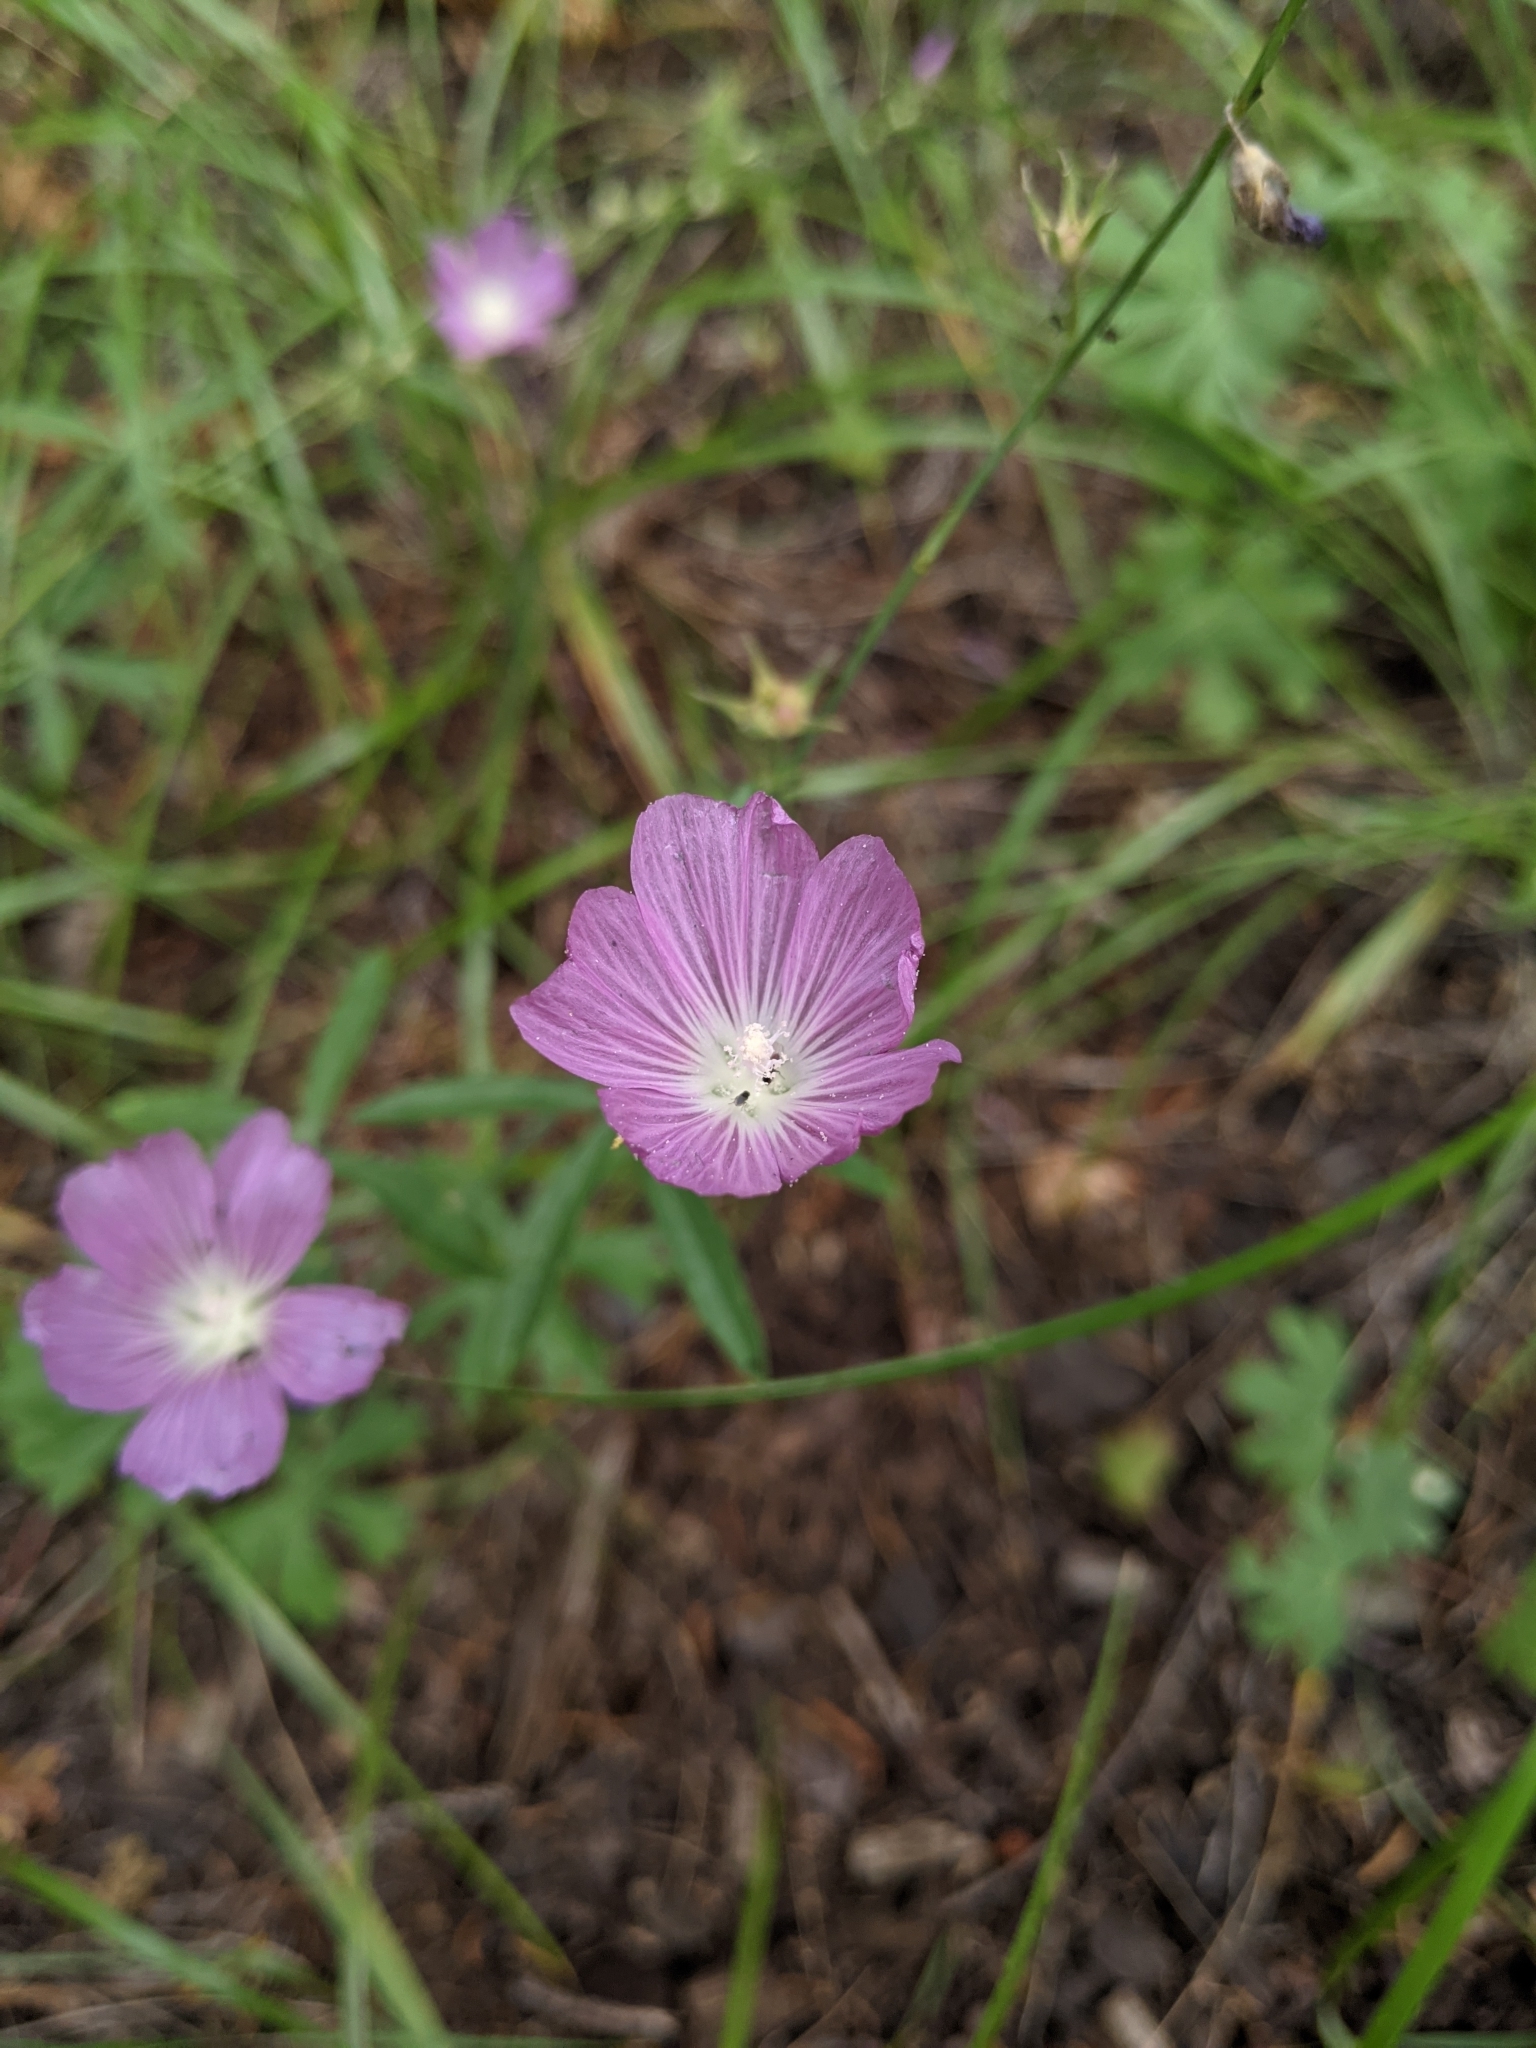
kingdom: Plantae
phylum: Tracheophyta
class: Magnoliopsida
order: Malvales
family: Malvaceae
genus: Sidalcea
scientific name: Sidalcea glaucescens
